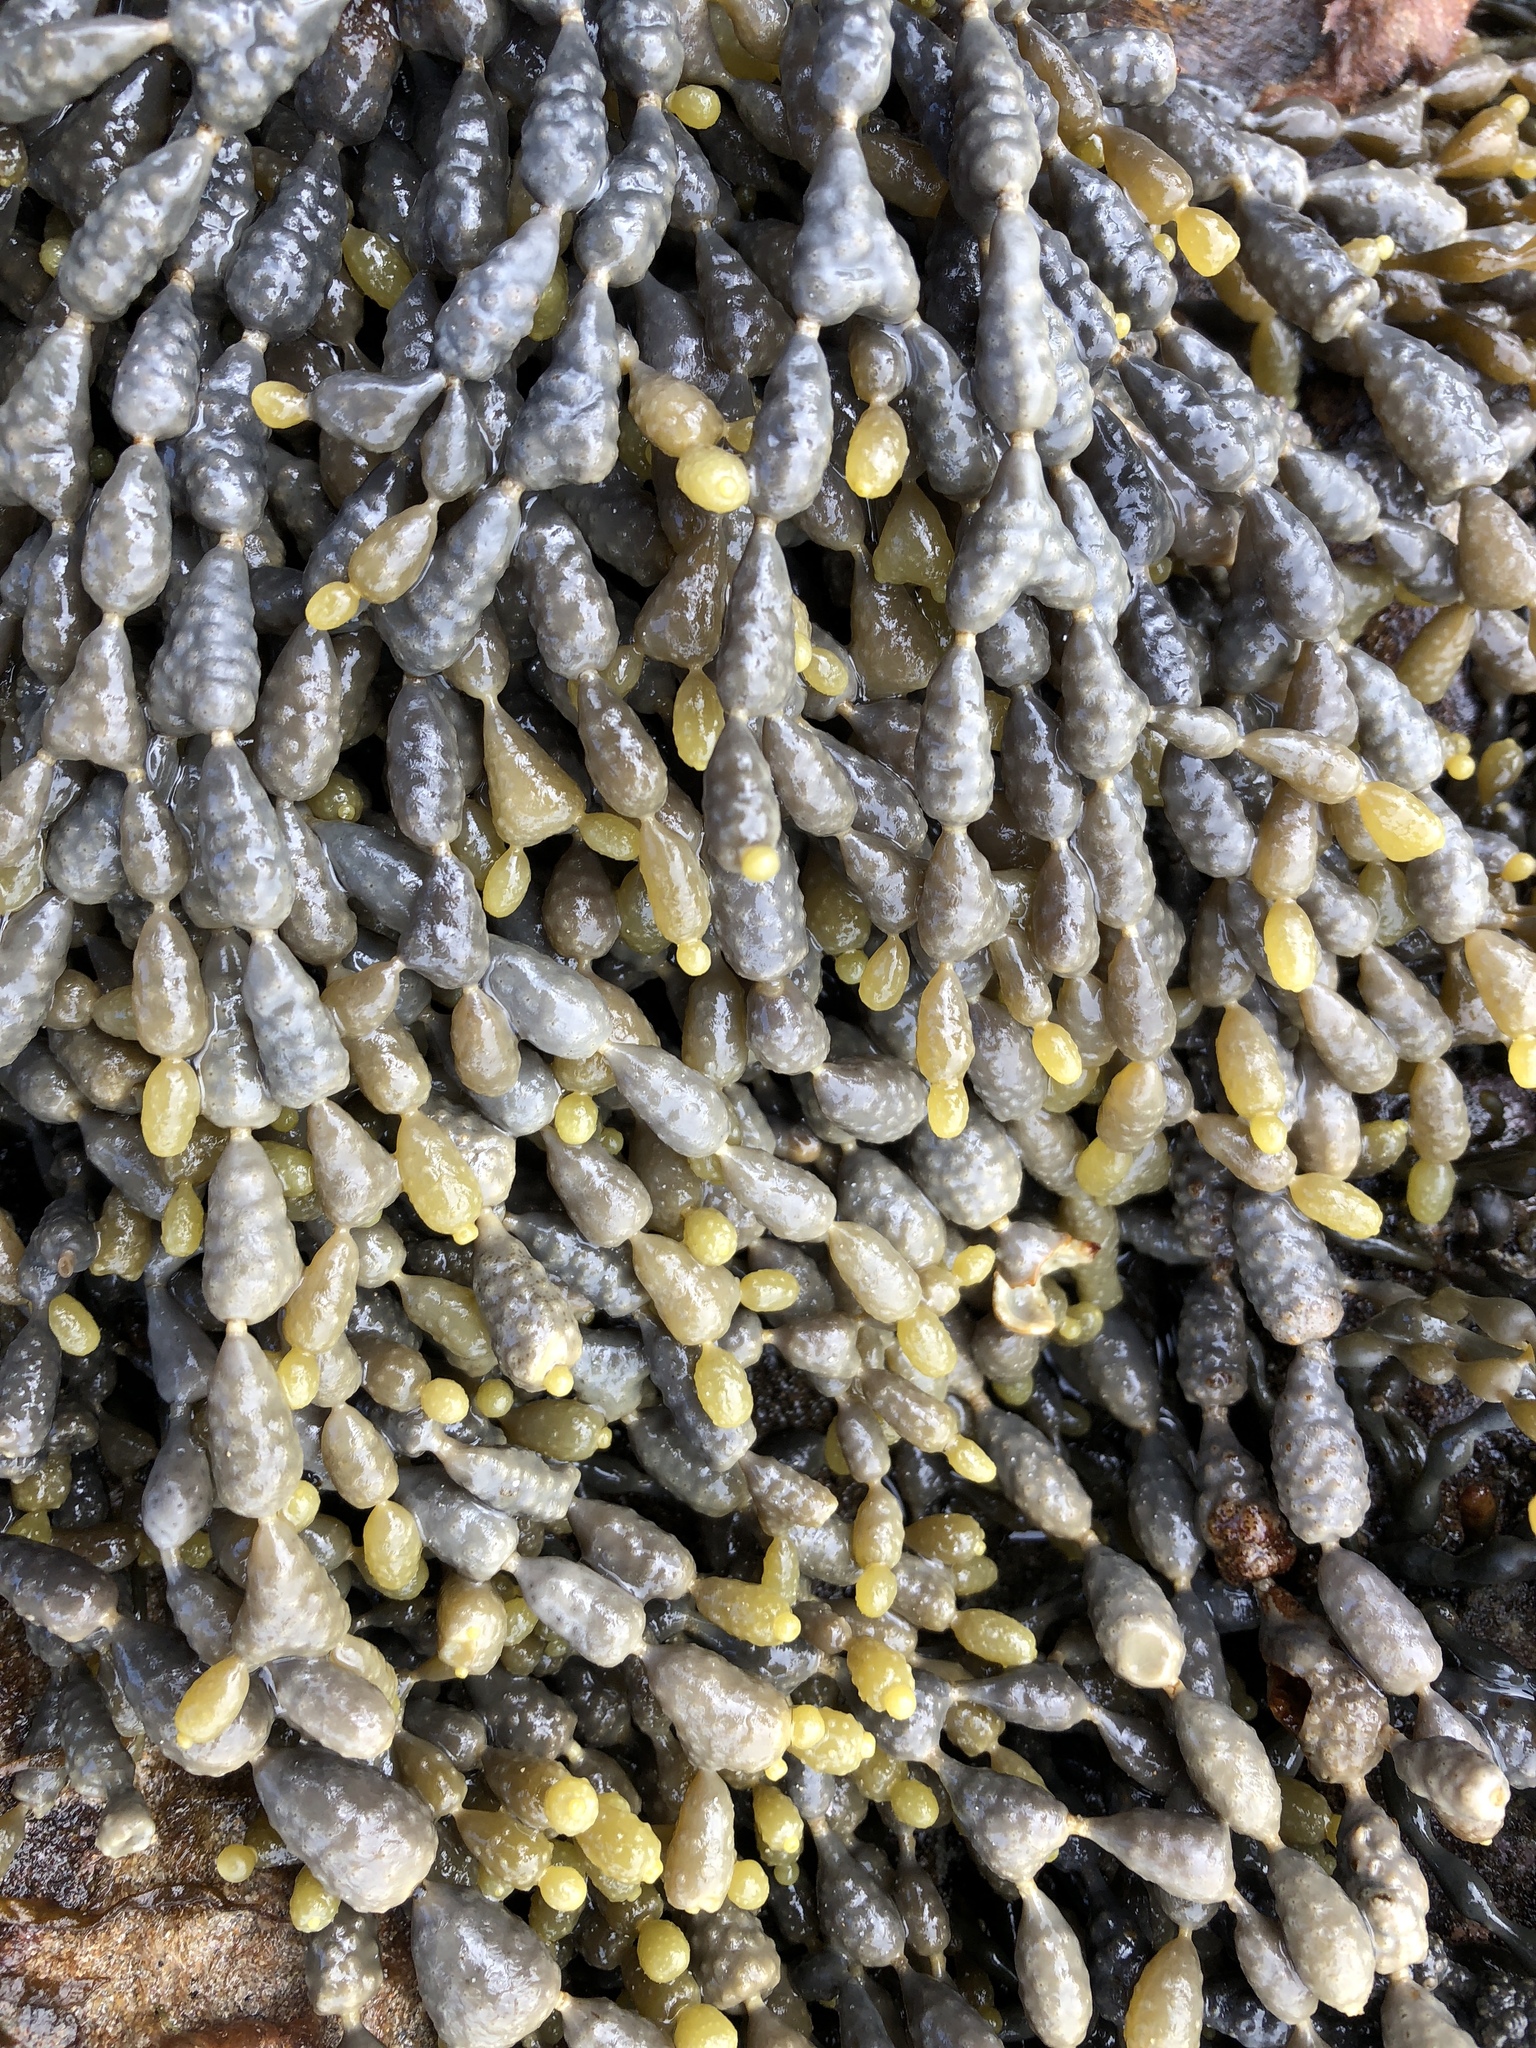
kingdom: Chromista
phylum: Ochrophyta
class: Phaeophyceae
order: Fucales
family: Hormosiraceae
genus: Hormosira
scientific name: Hormosira banksii
